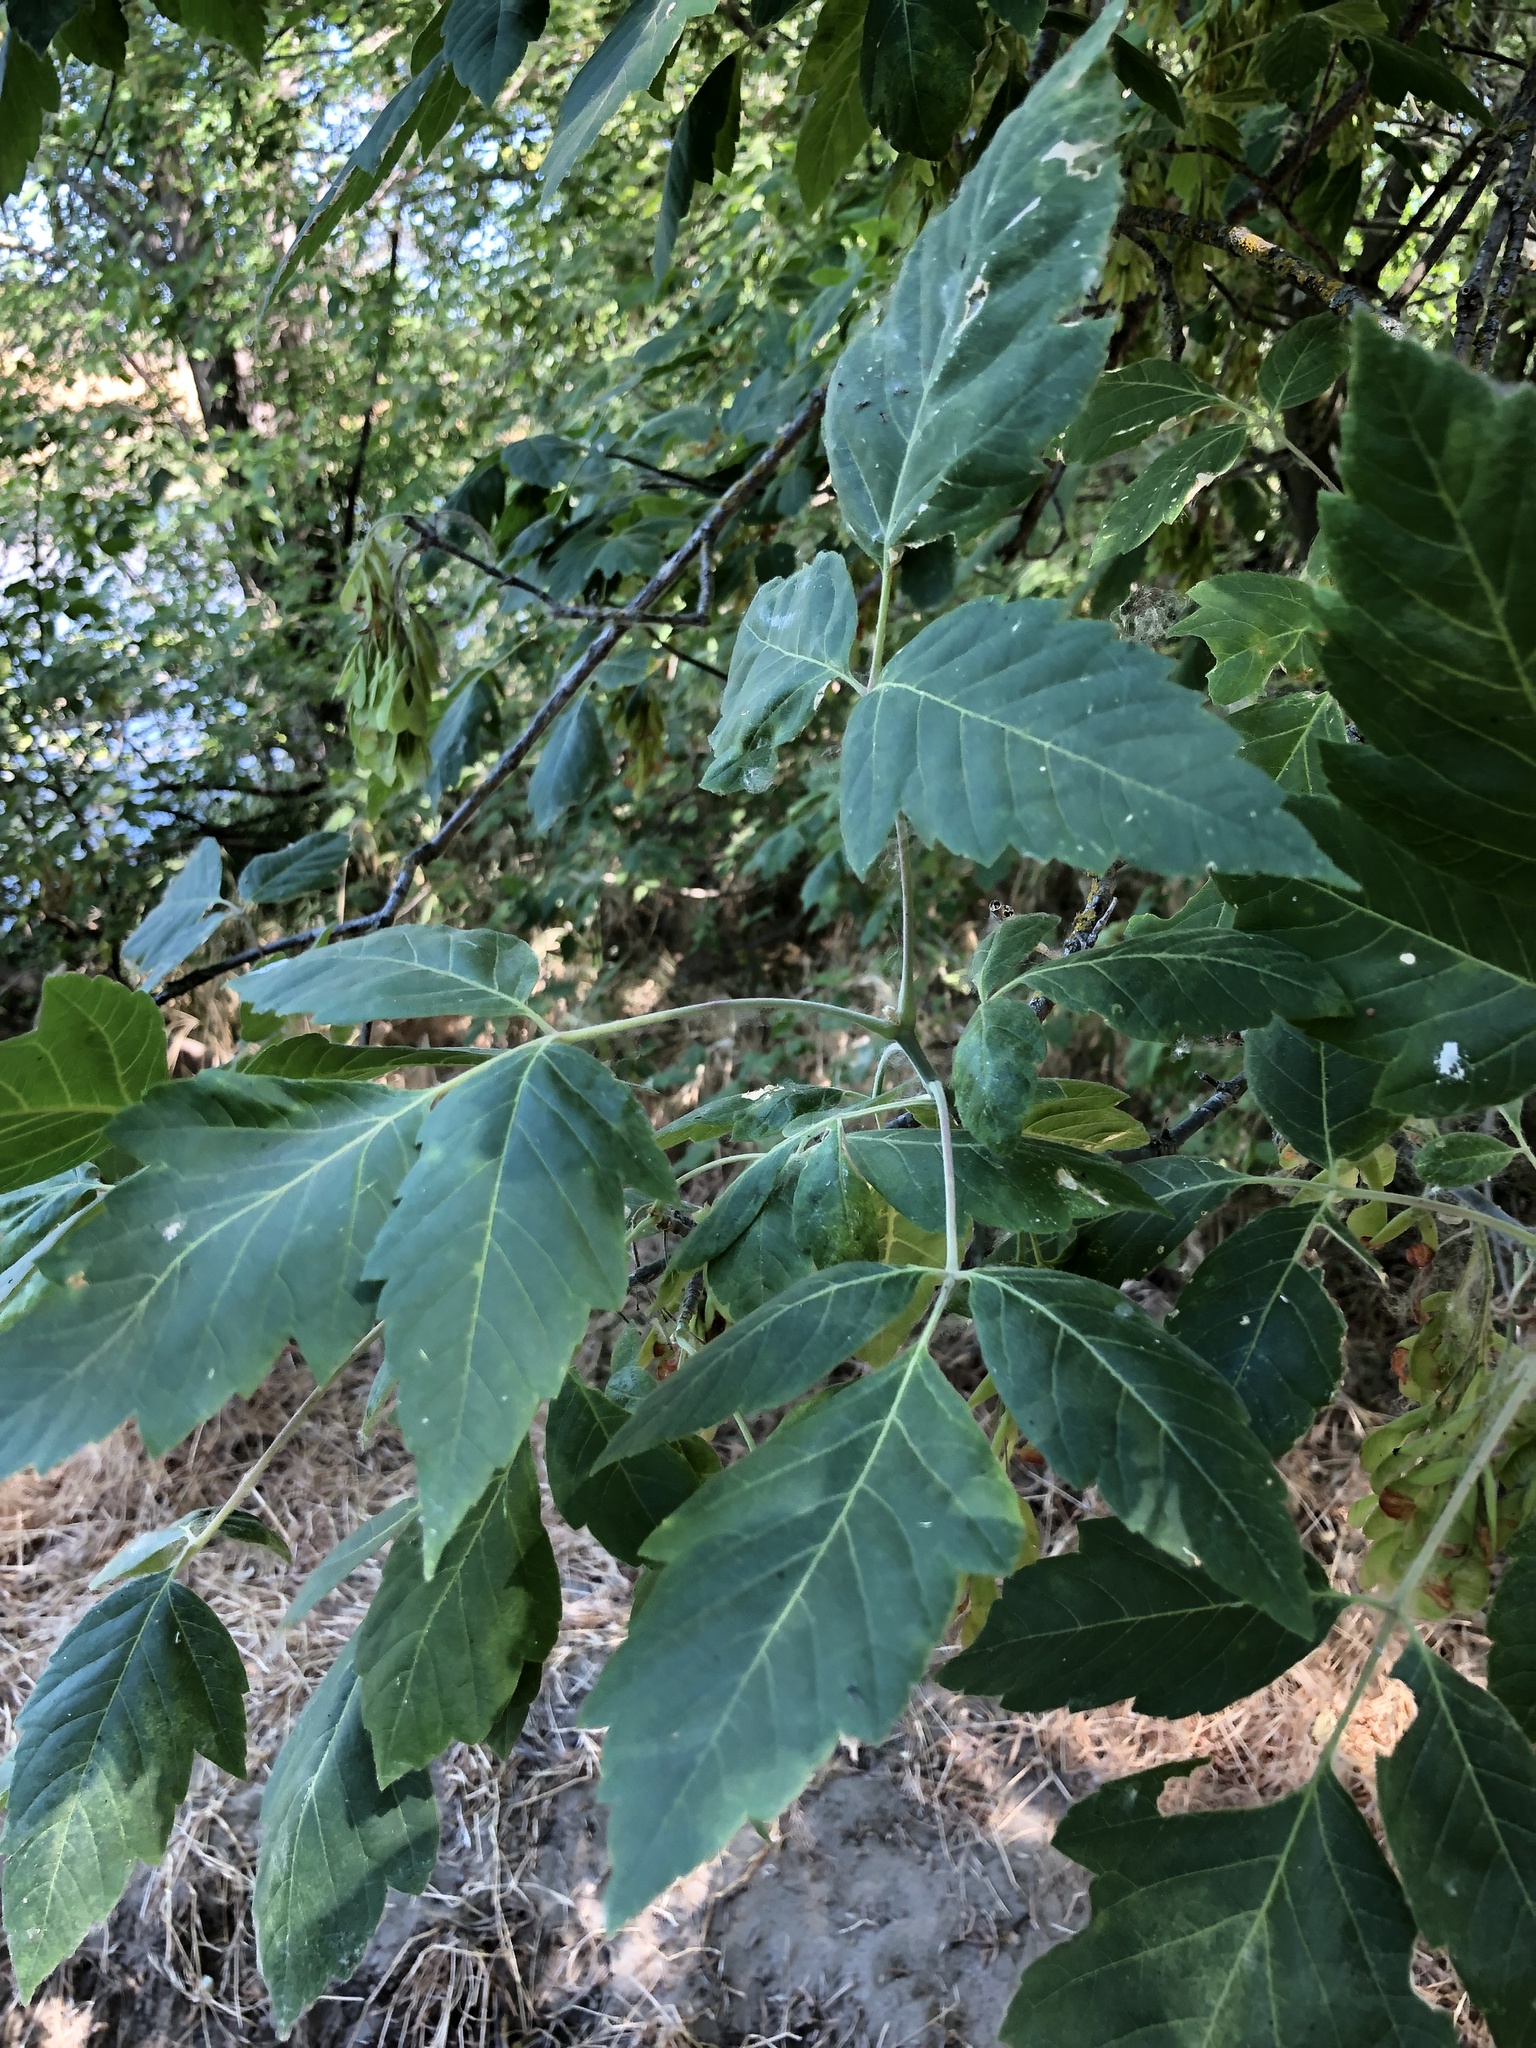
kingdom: Plantae
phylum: Tracheophyta
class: Magnoliopsida
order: Sapindales
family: Sapindaceae
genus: Acer
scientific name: Acer negundo
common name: Ashleaf maple
